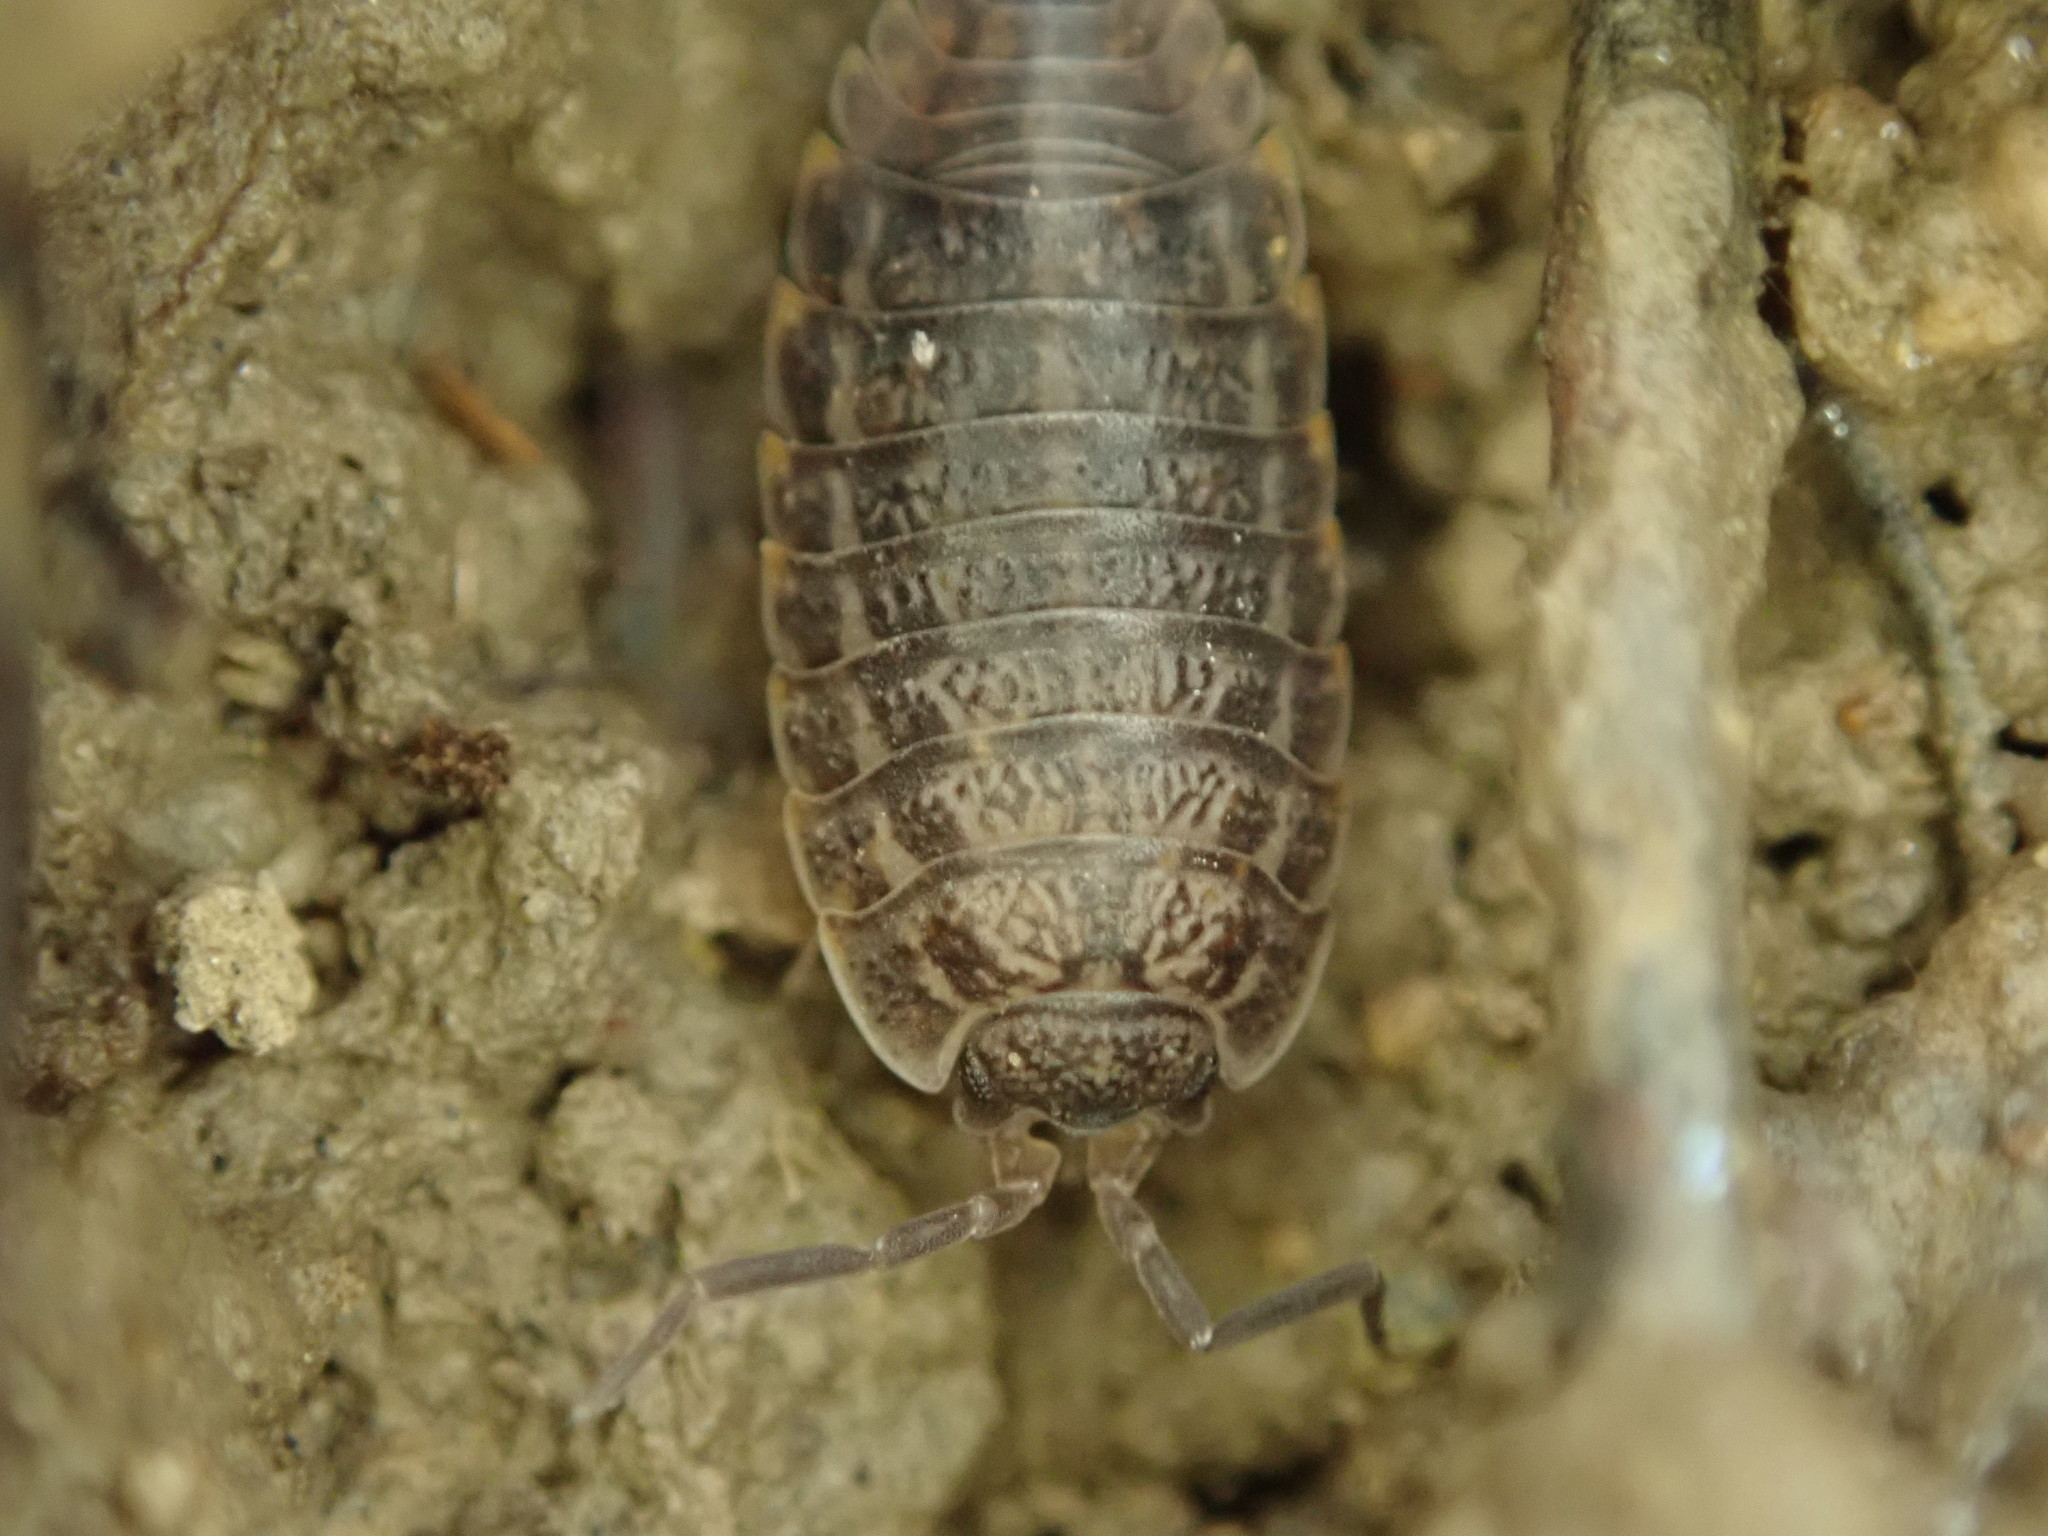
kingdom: Animalia
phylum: Arthropoda
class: Malacostraca
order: Isopoda
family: Trachelipodidae
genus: Trachelipus
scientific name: Trachelipus rathkii
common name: Isopod
